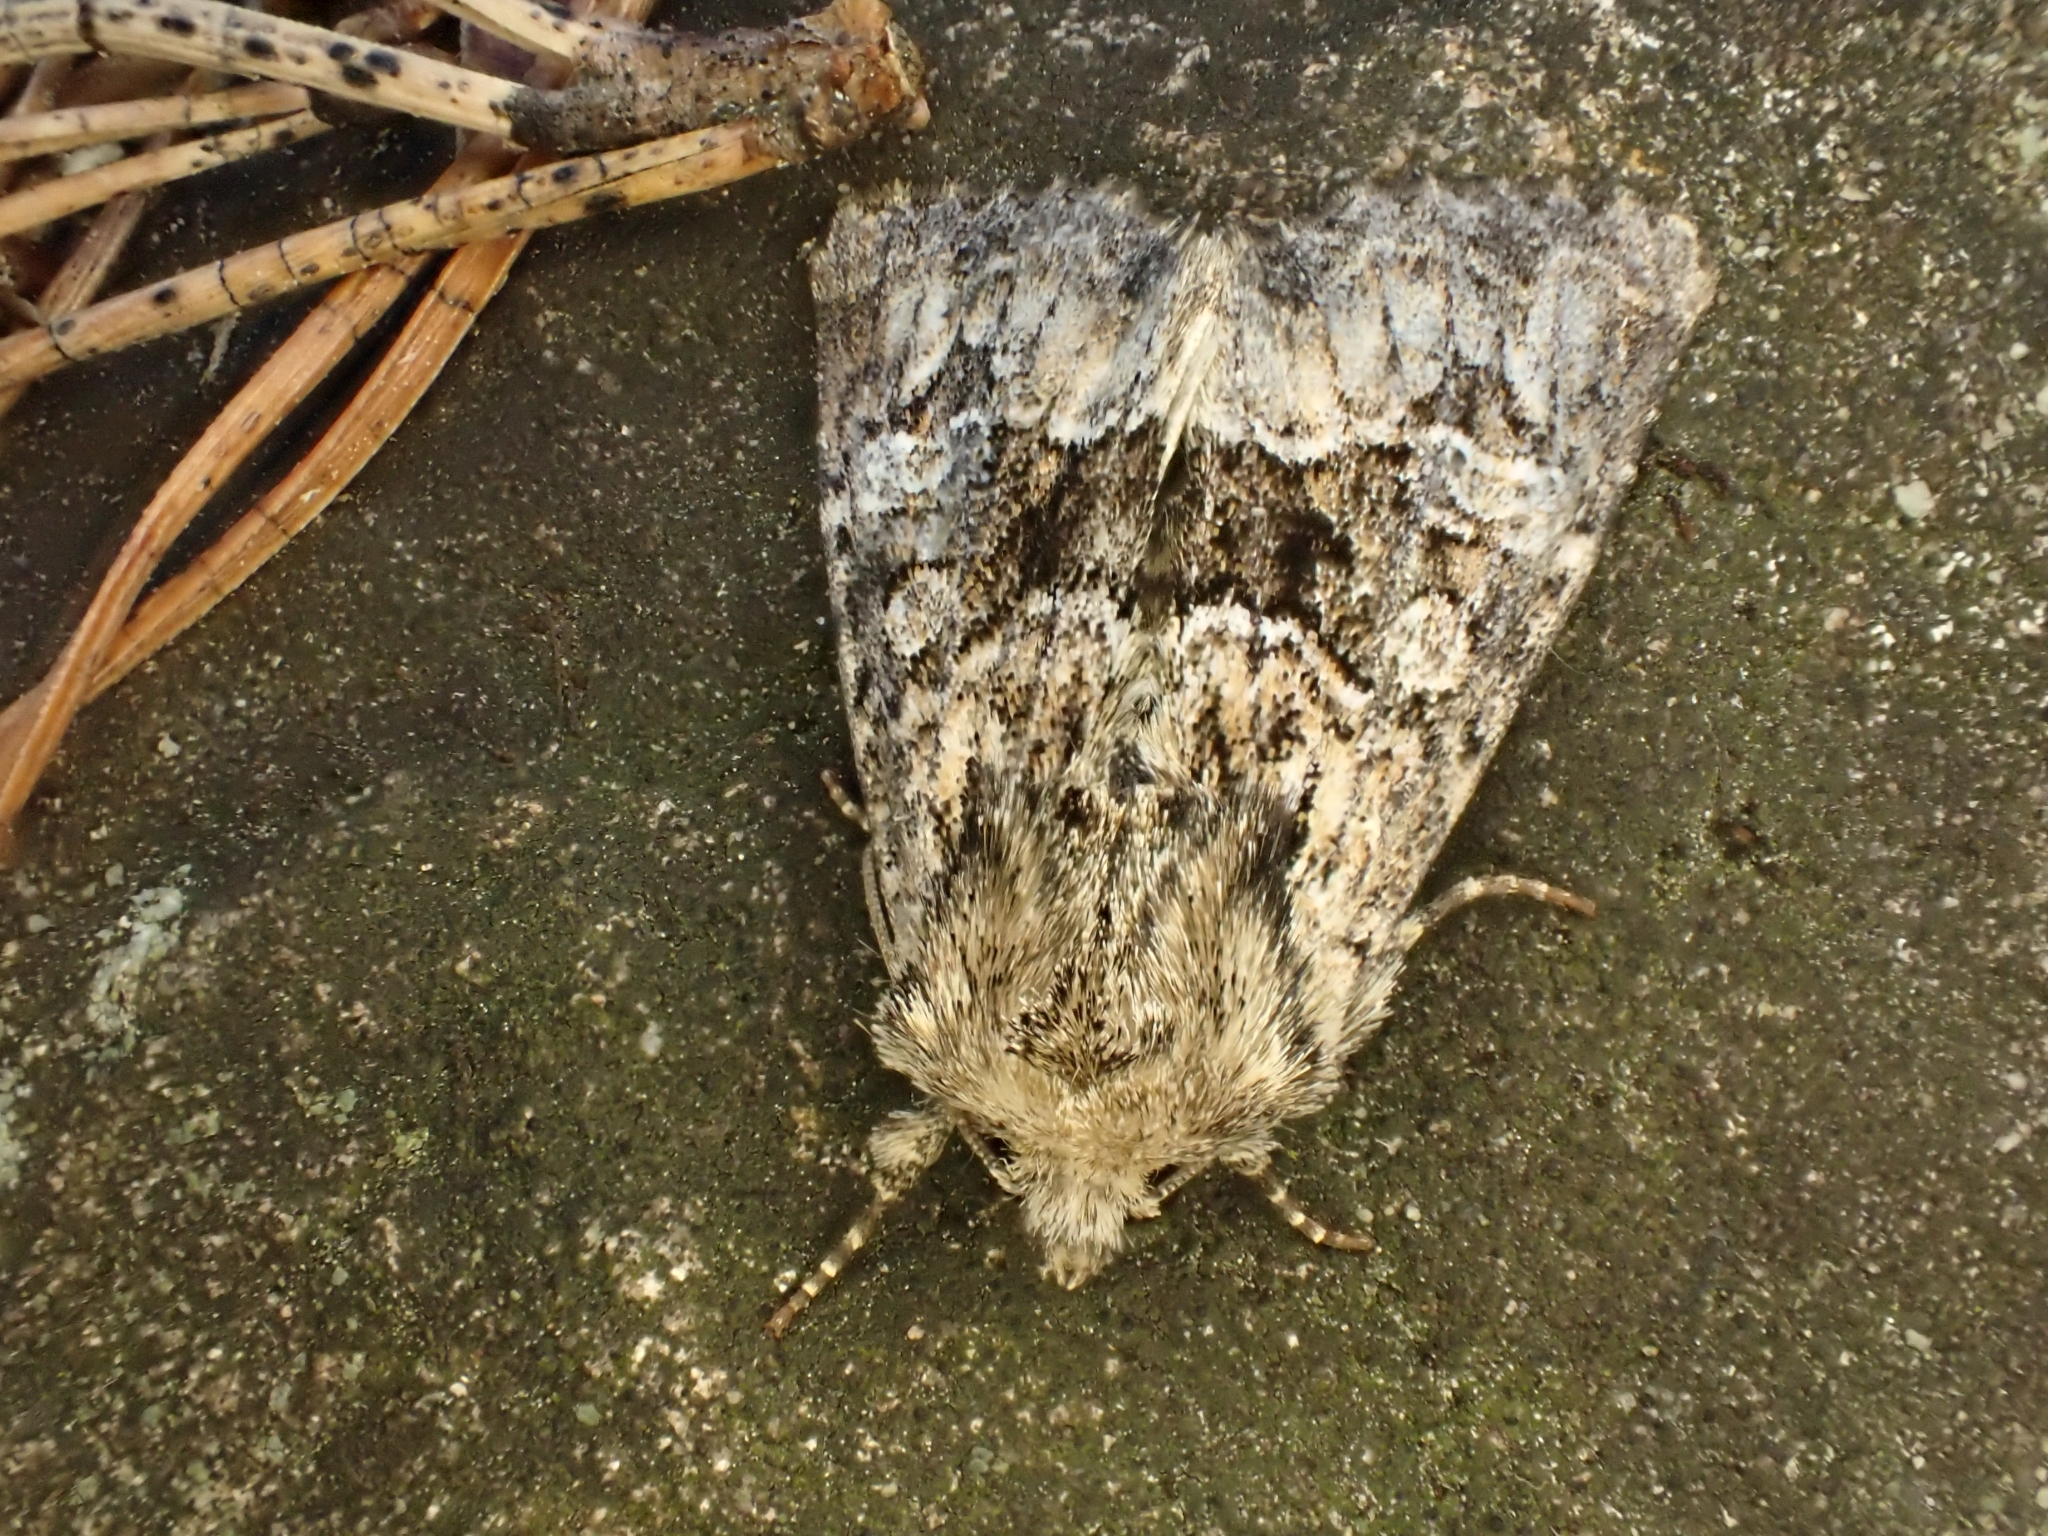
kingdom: Animalia
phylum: Arthropoda
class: Insecta
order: Lepidoptera
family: Noctuidae
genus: Apamea
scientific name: Apamea illyria
